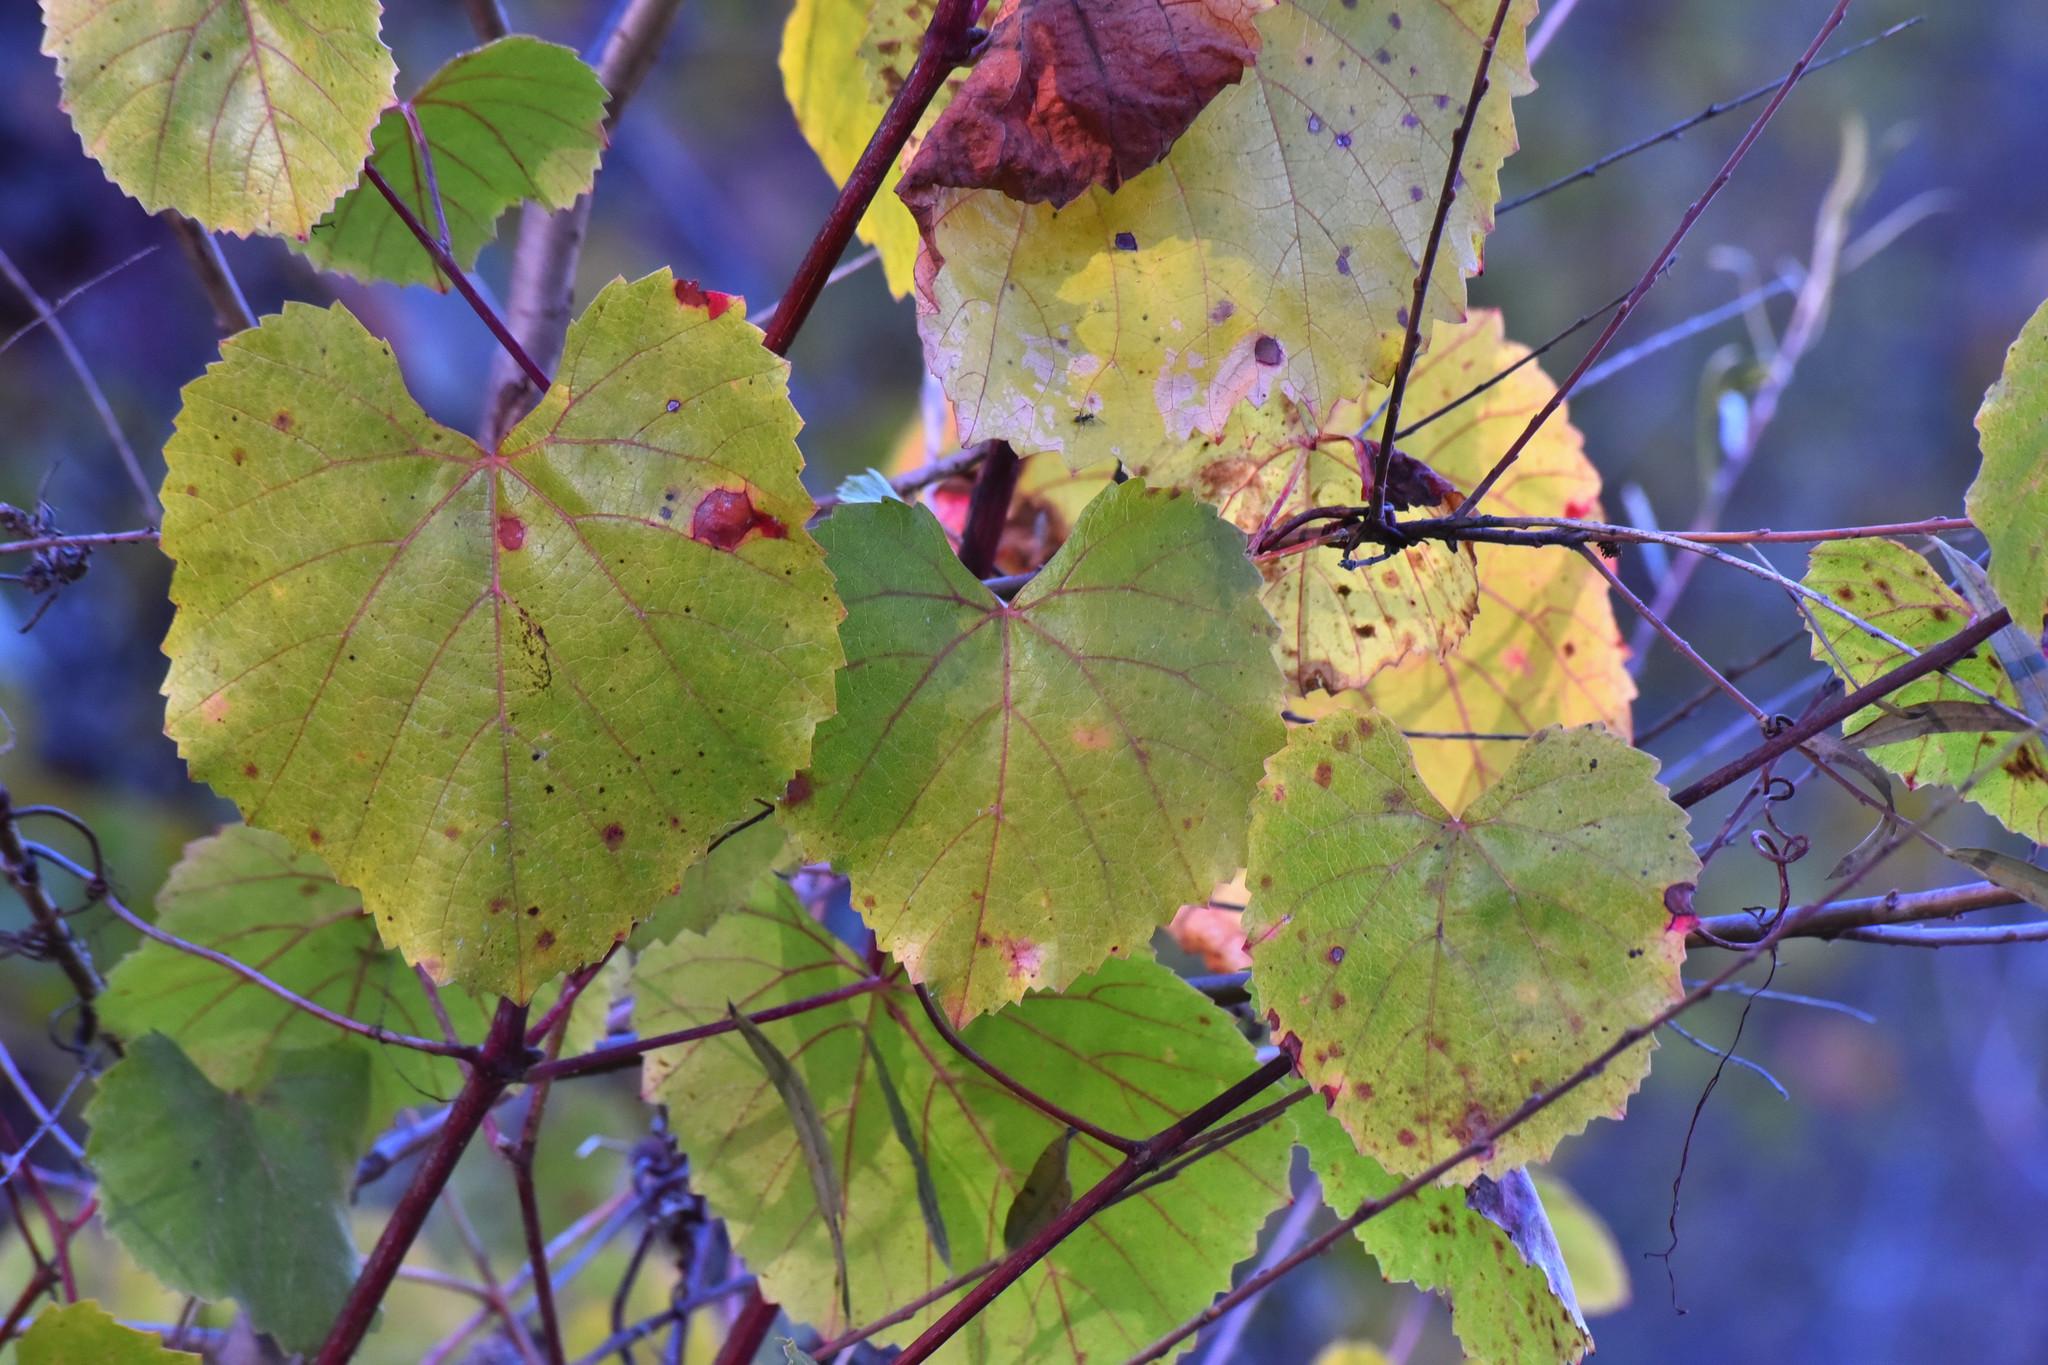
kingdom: Plantae
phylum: Tracheophyta
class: Magnoliopsida
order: Vitales
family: Vitaceae
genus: Vitis
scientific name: Vitis californica
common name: California wild grape
